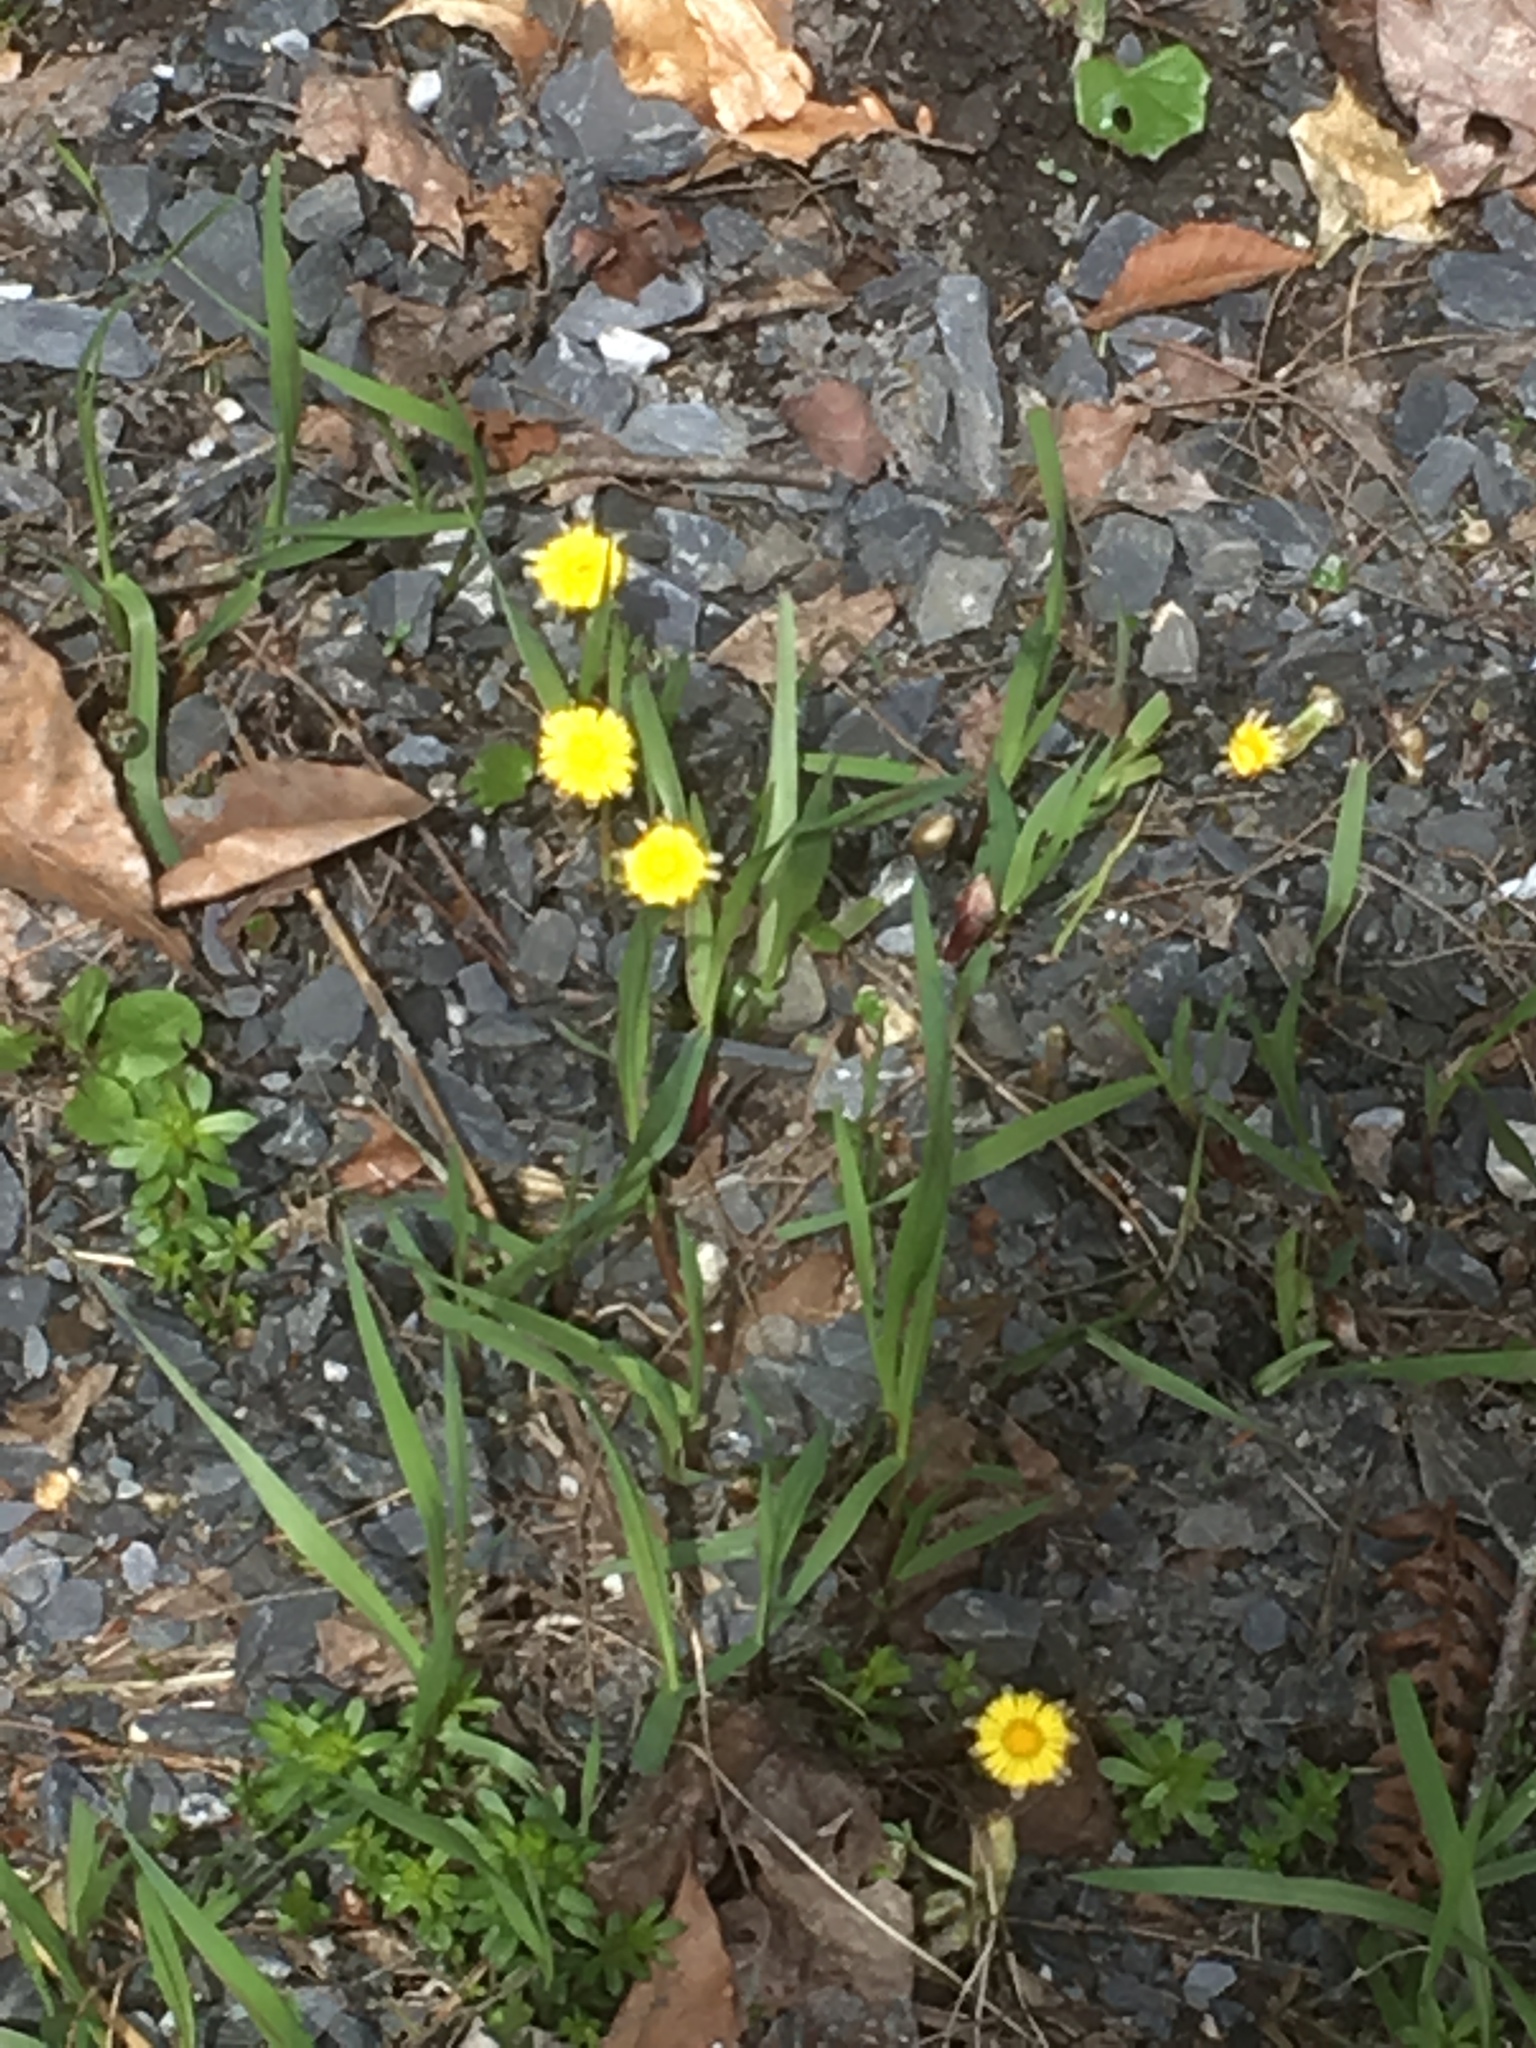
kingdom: Plantae
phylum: Tracheophyta
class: Magnoliopsida
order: Asterales
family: Asteraceae
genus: Tussilago
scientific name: Tussilago farfara
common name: Coltsfoot
